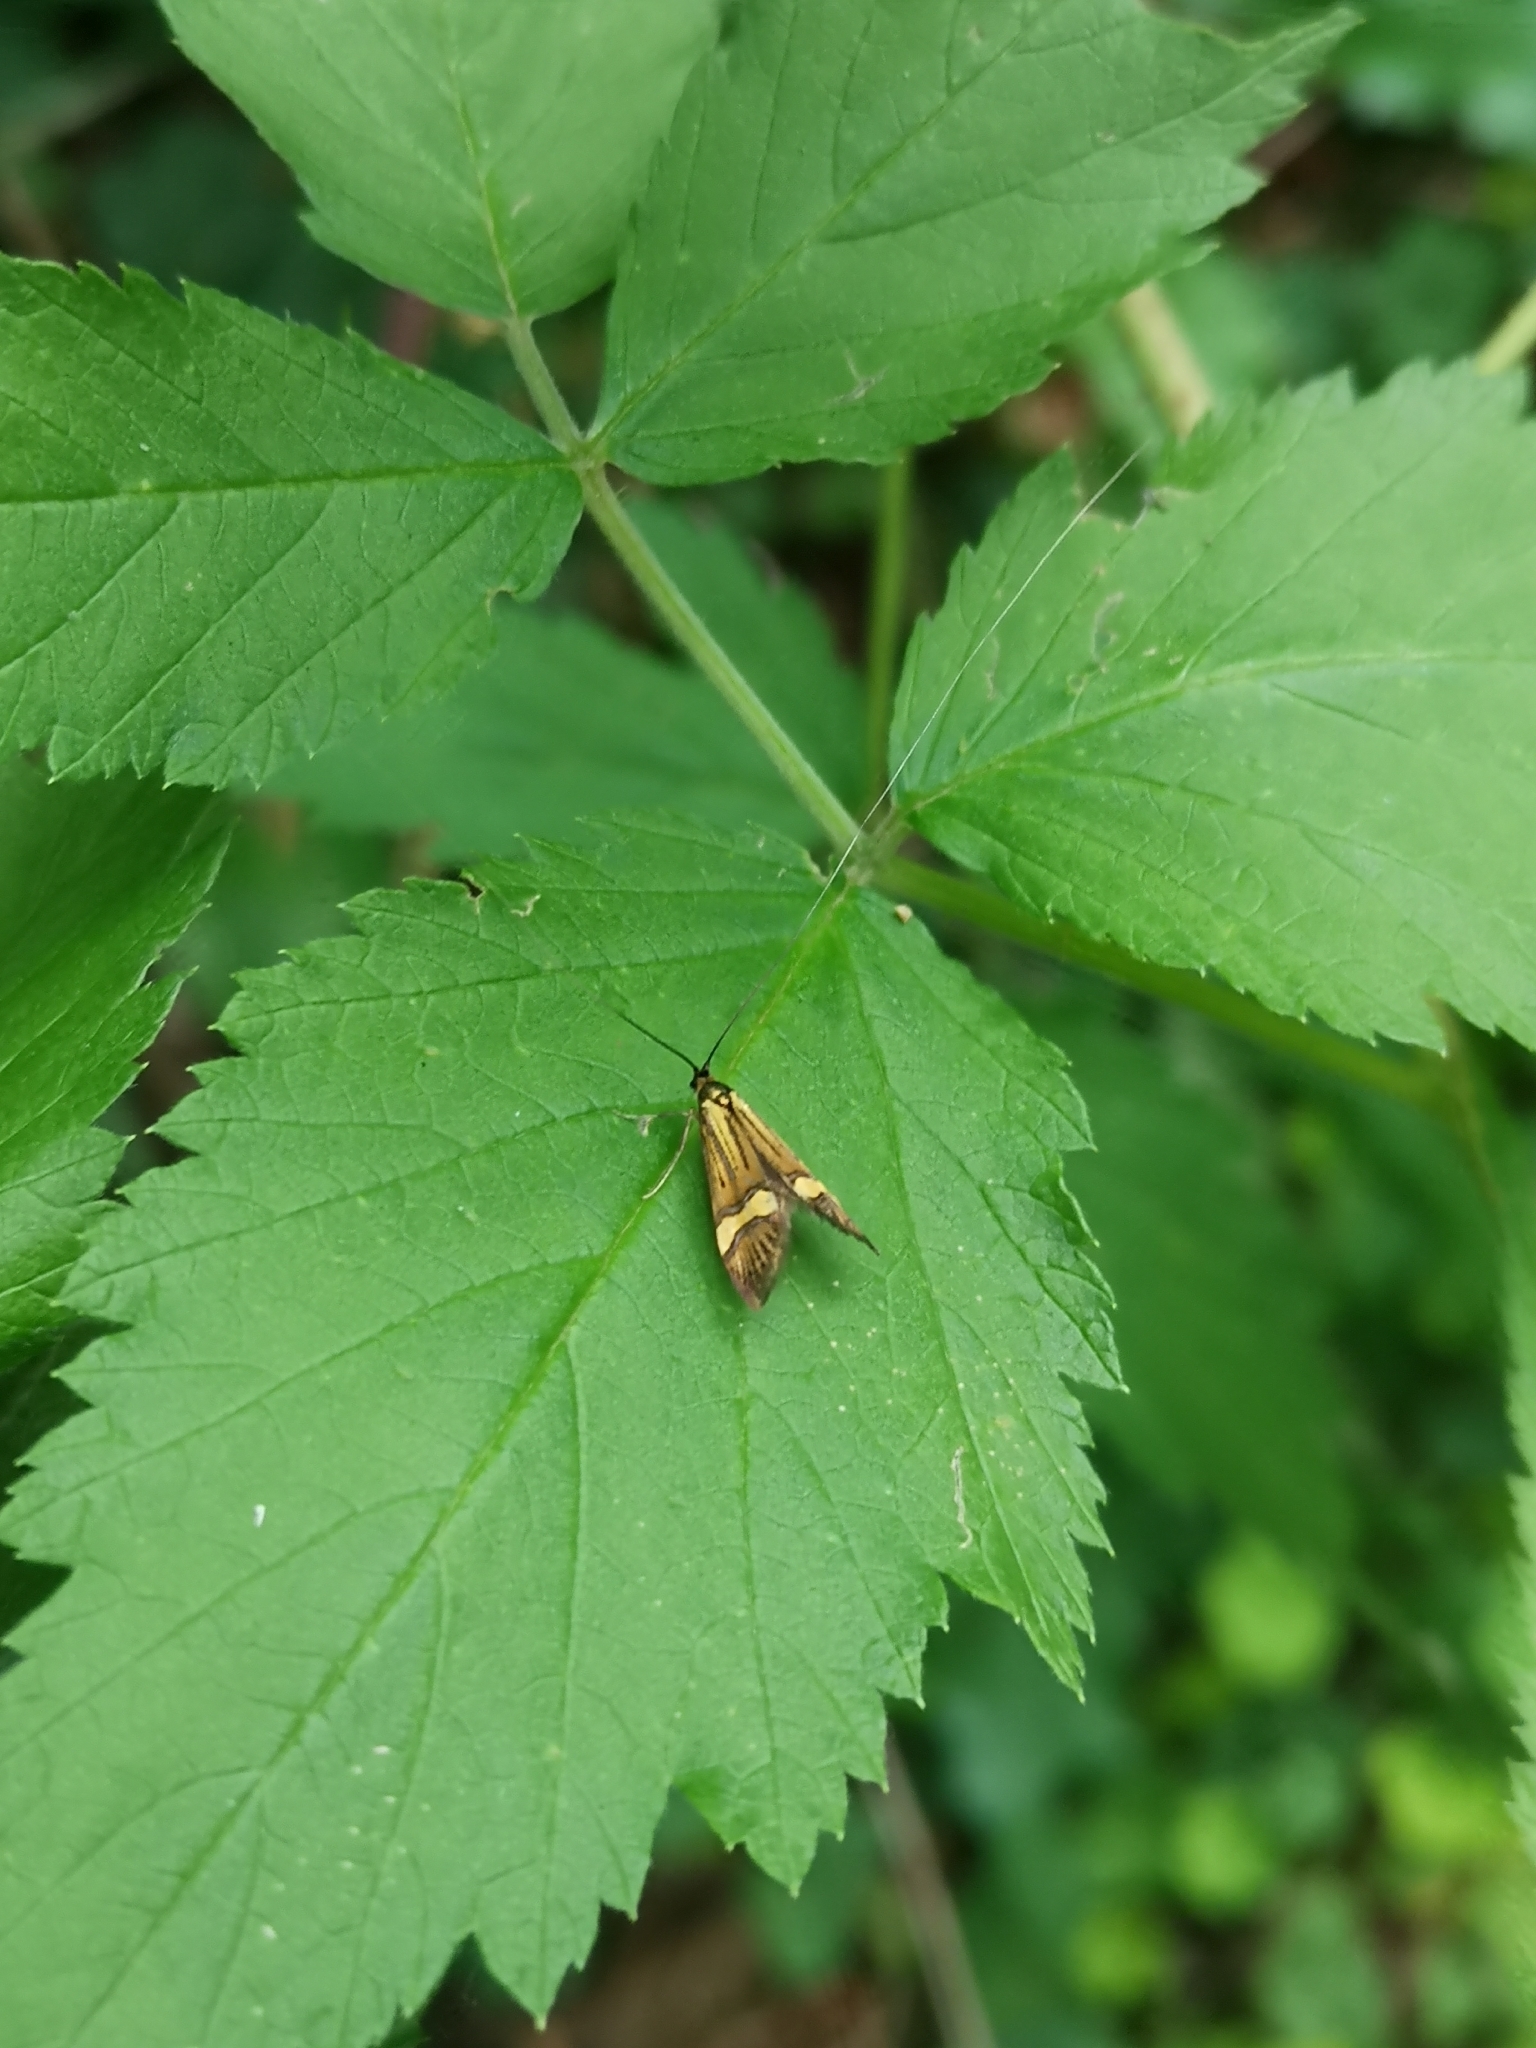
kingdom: Animalia
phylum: Arthropoda
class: Insecta
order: Lepidoptera
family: Adelidae
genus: Nemophora
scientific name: Nemophora degeerella
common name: Yellow-barred long-horn
